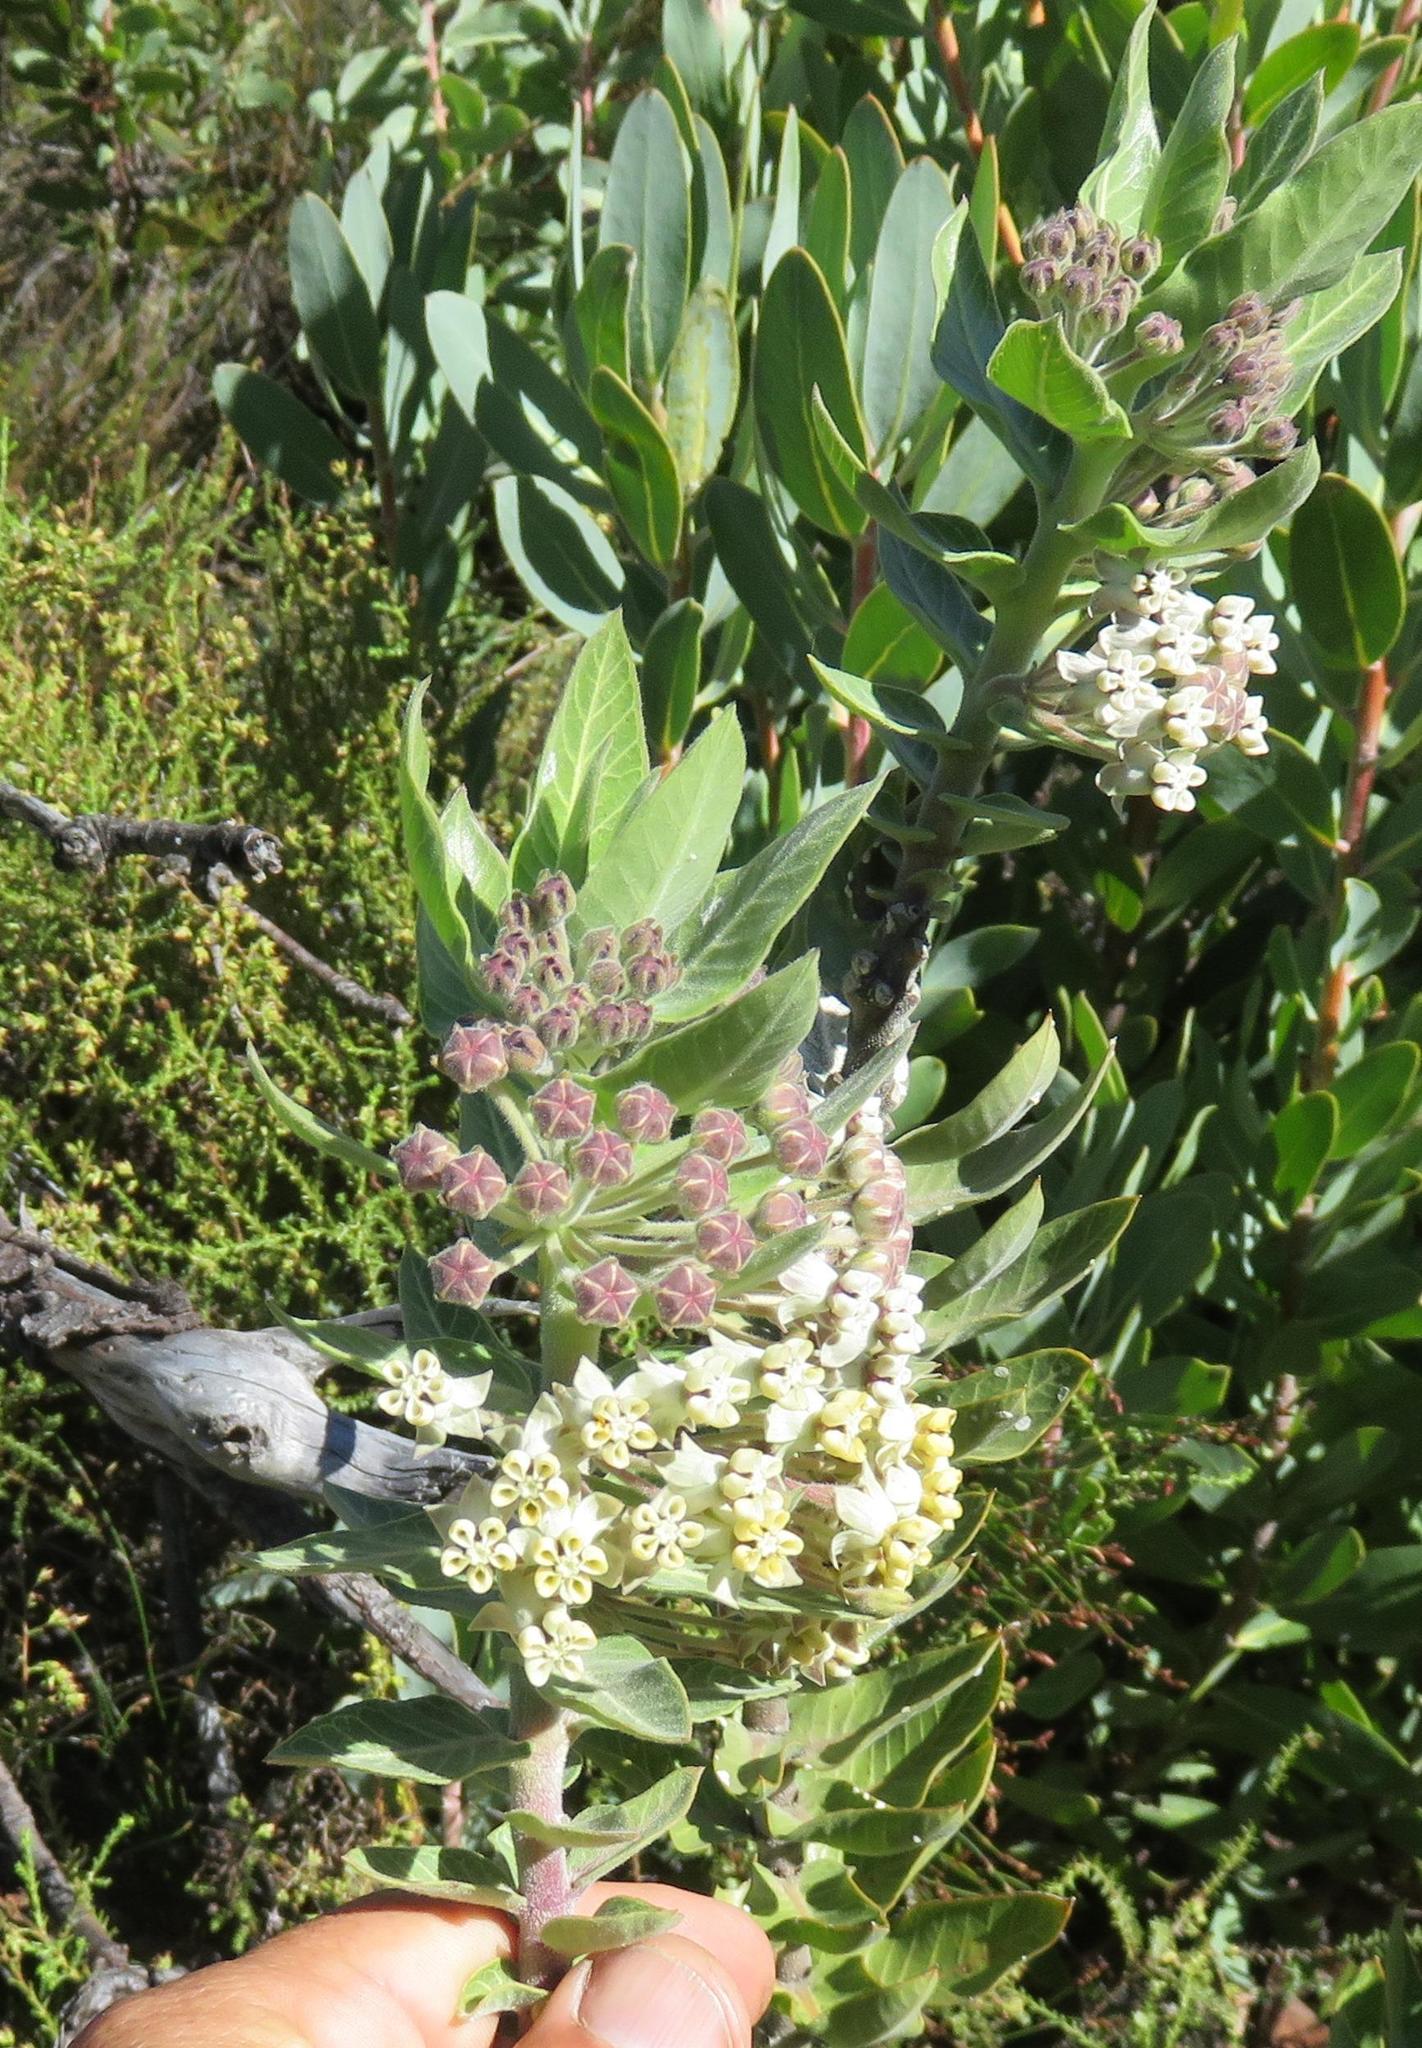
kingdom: Plantae
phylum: Tracheophyta
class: Magnoliopsida
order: Gentianales
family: Apocynaceae
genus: Gomphocarpus
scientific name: Gomphocarpus cancellatus
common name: Wild cotton
